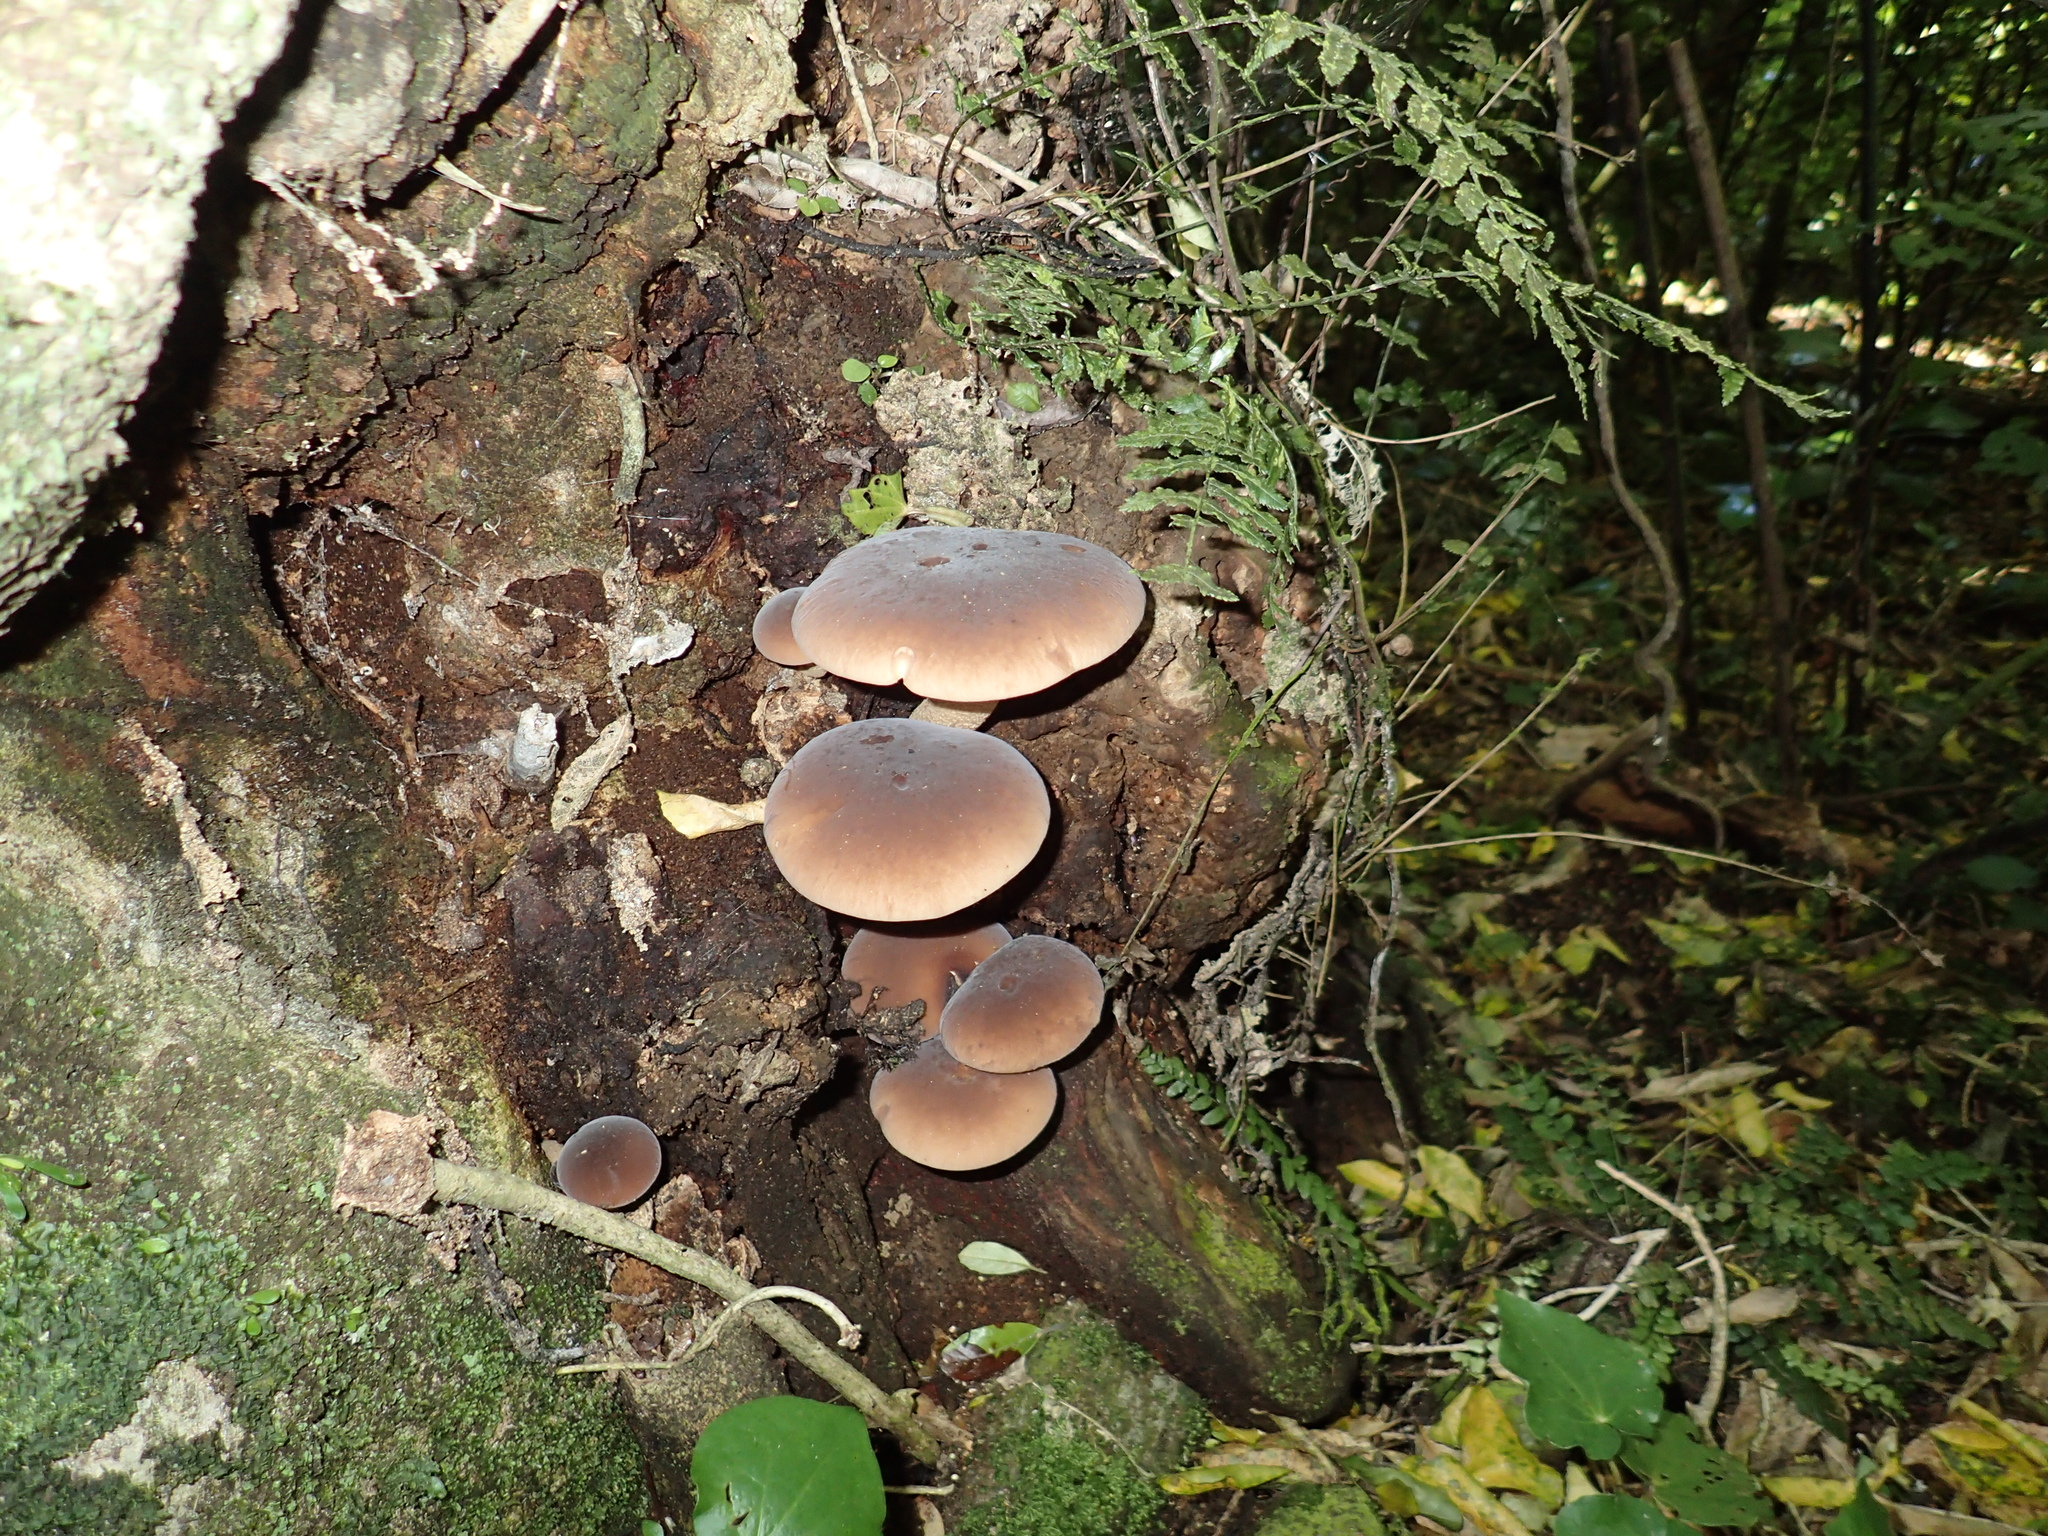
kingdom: Fungi
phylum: Basidiomycota
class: Agaricomycetes
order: Agaricales
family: Tubariaceae
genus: Cyclocybe
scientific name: Cyclocybe parasitica
